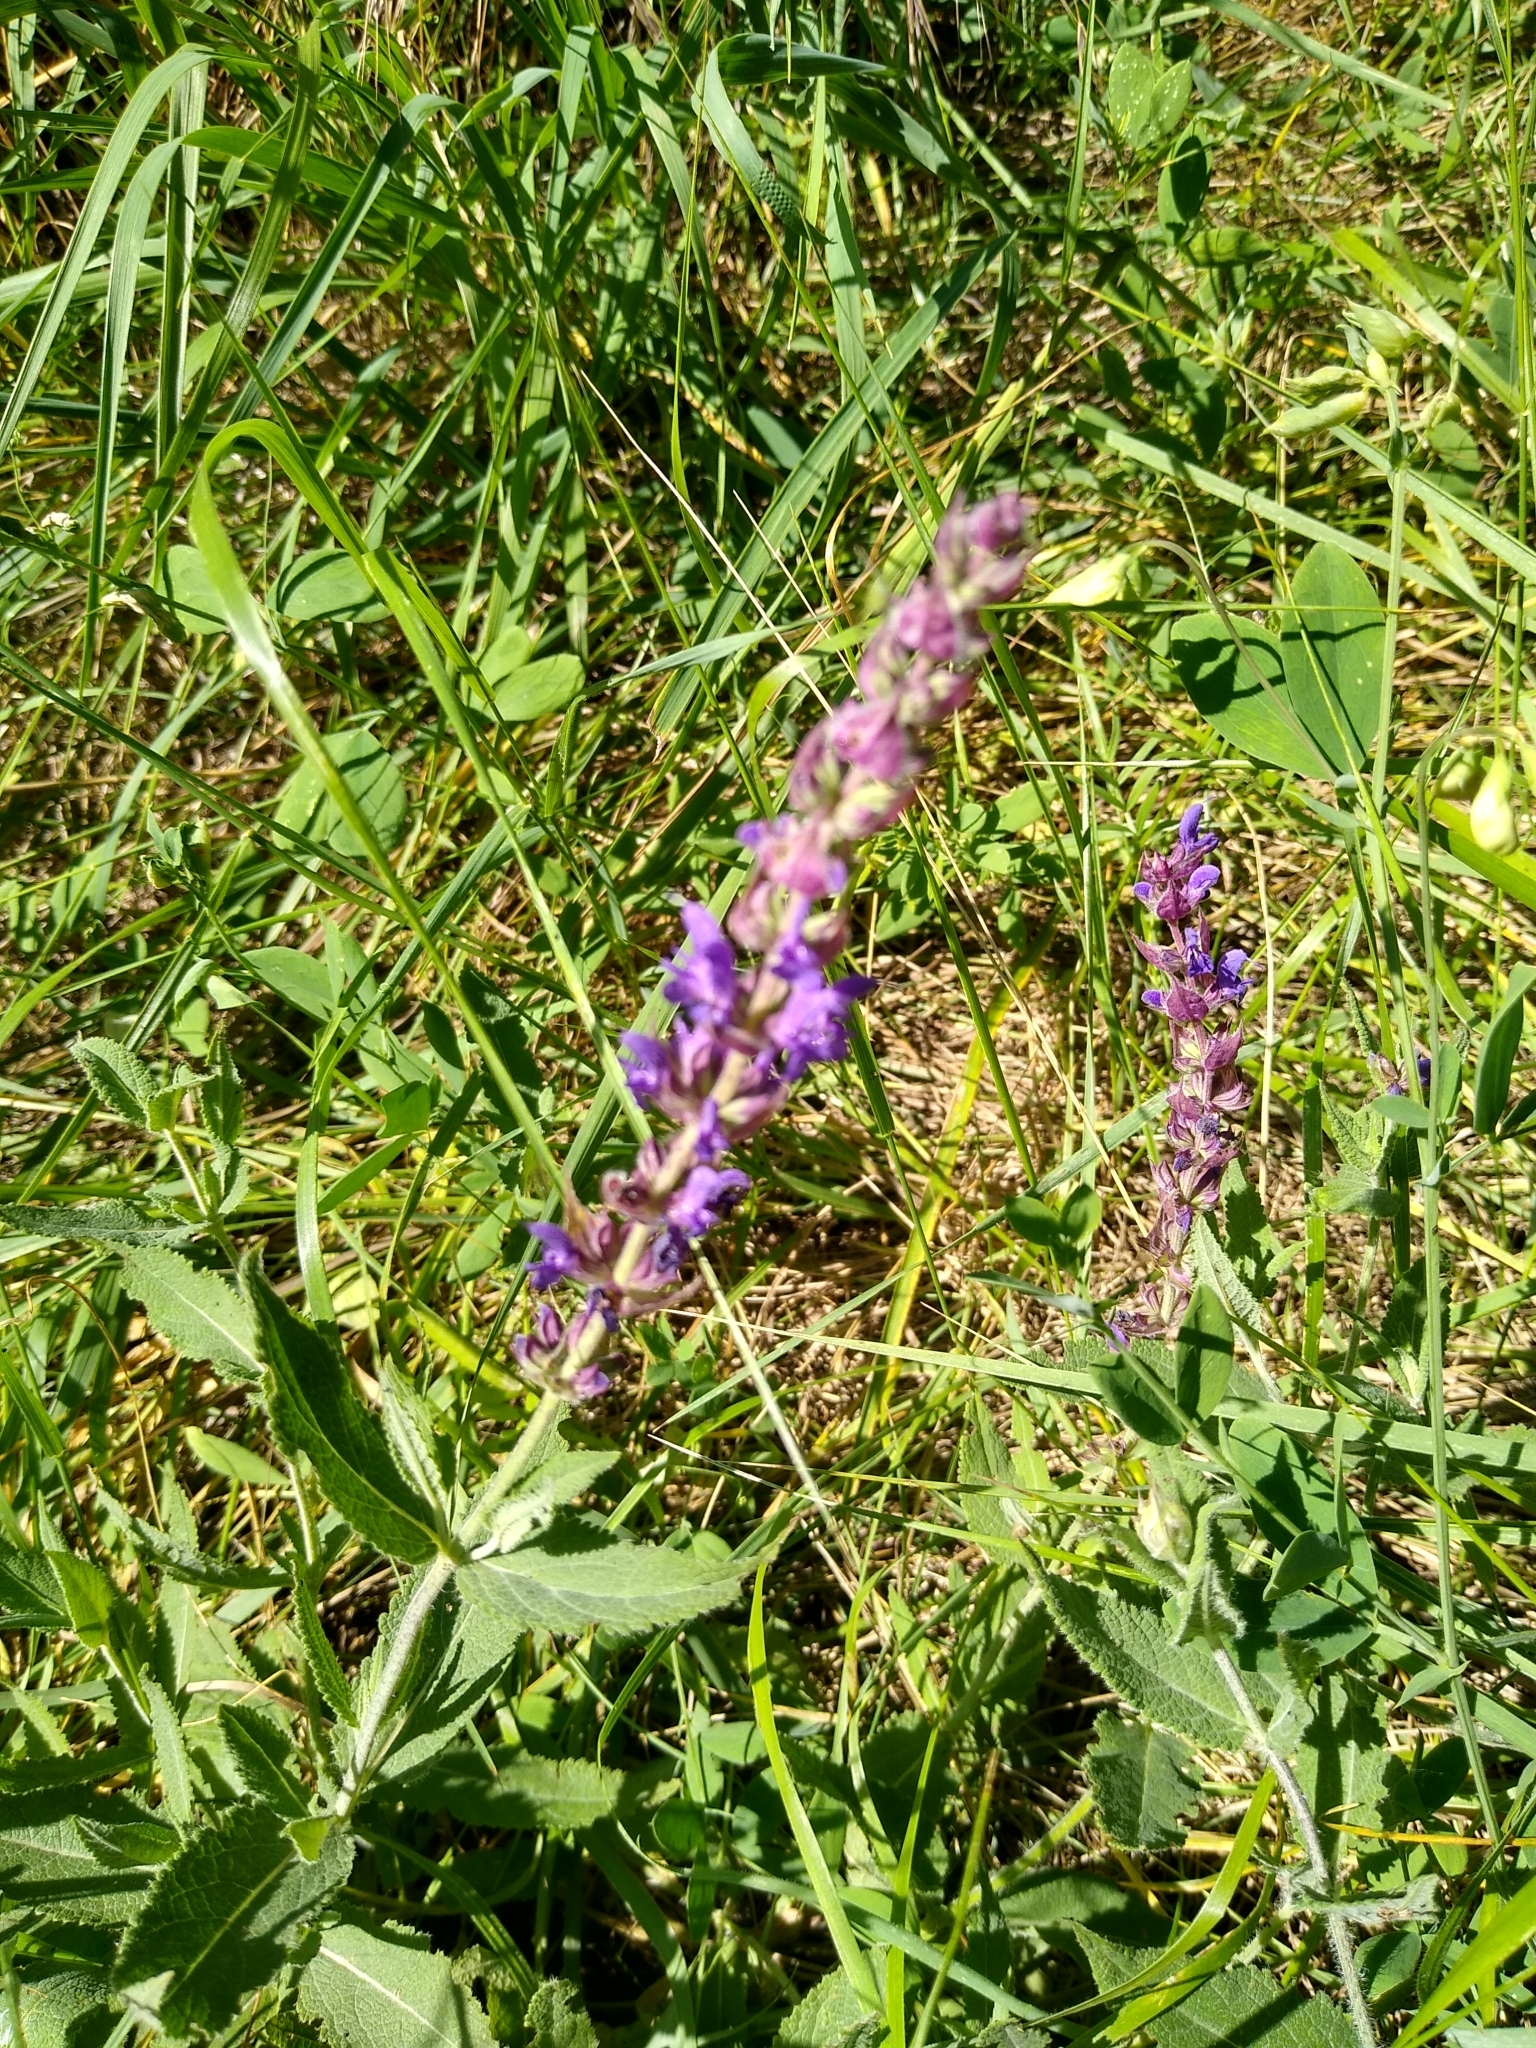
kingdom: Plantae
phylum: Tracheophyta
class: Magnoliopsida
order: Lamiales
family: Lamiaceae
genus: Salvia
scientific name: Salvia nemorosa
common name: Balkan clary
